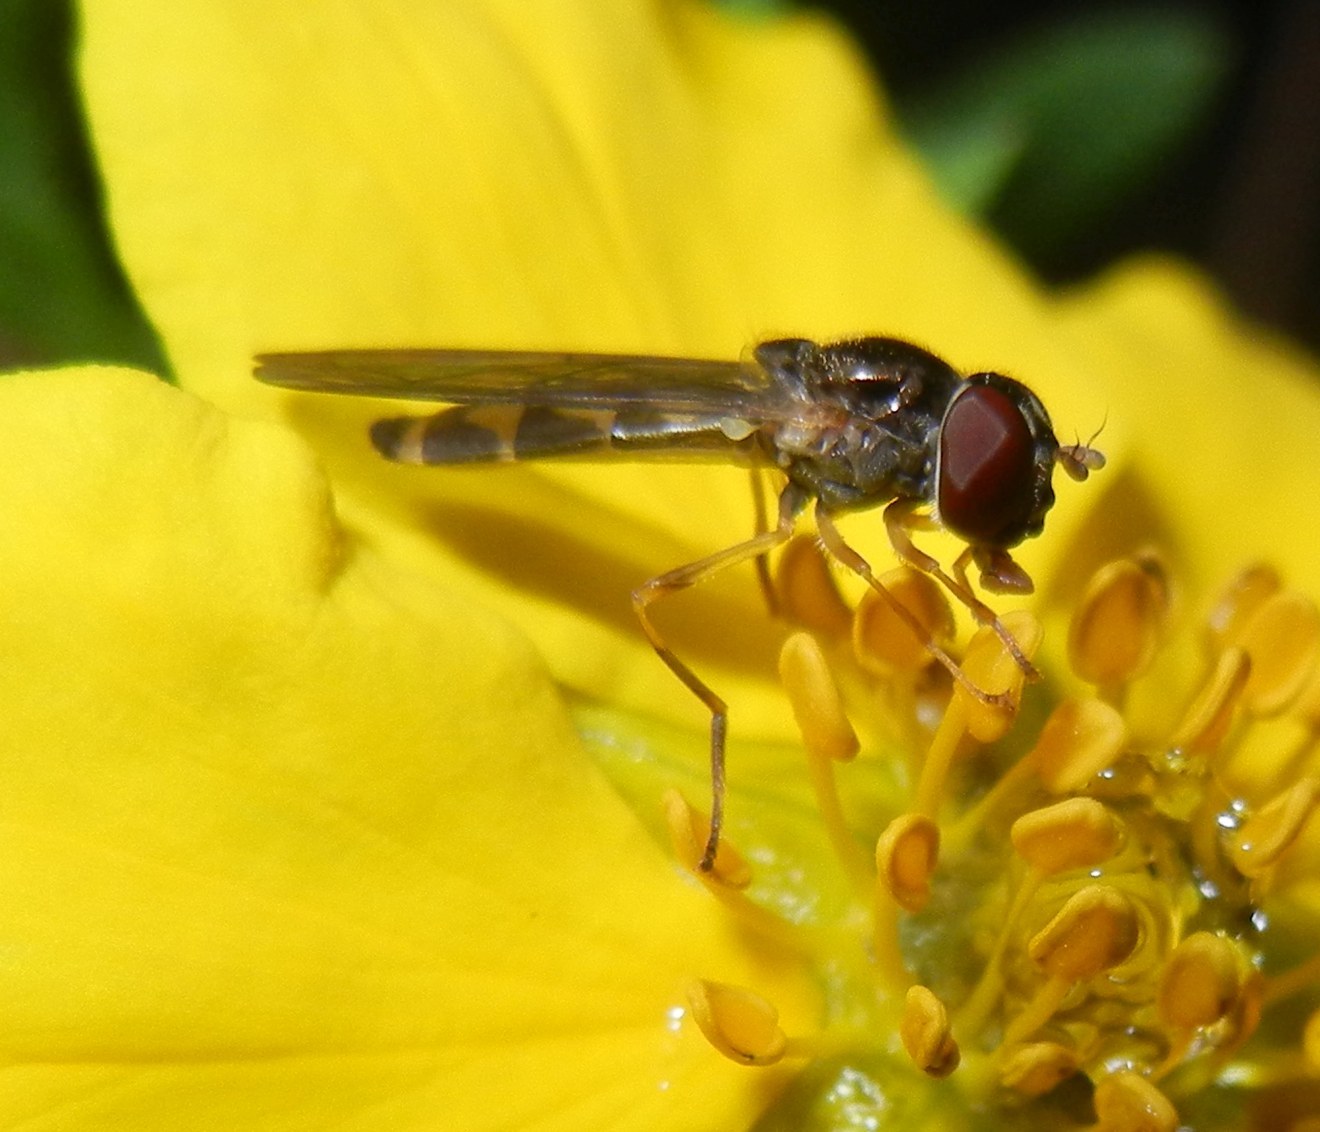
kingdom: Animalia
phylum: Arthropoda
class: Insecta
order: Diptera
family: Syrphidae
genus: Melanostoma
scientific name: Melanostoma scalare
